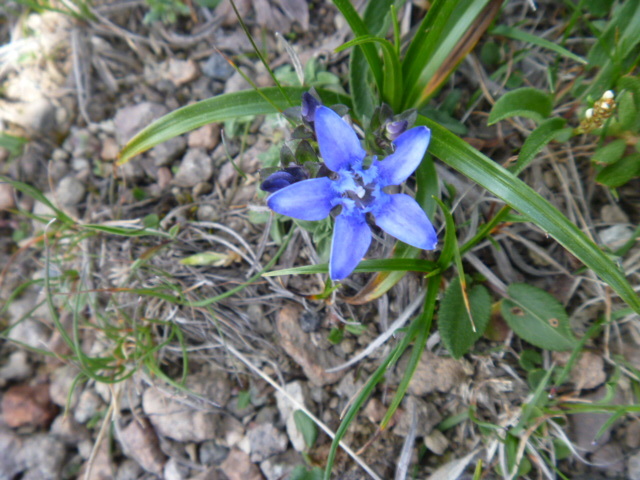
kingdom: Plantae
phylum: Tracheophyta
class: Magnoliopsida
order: Gentianales
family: Gentianaceae
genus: Gentiana
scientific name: Gentiana jamesii
